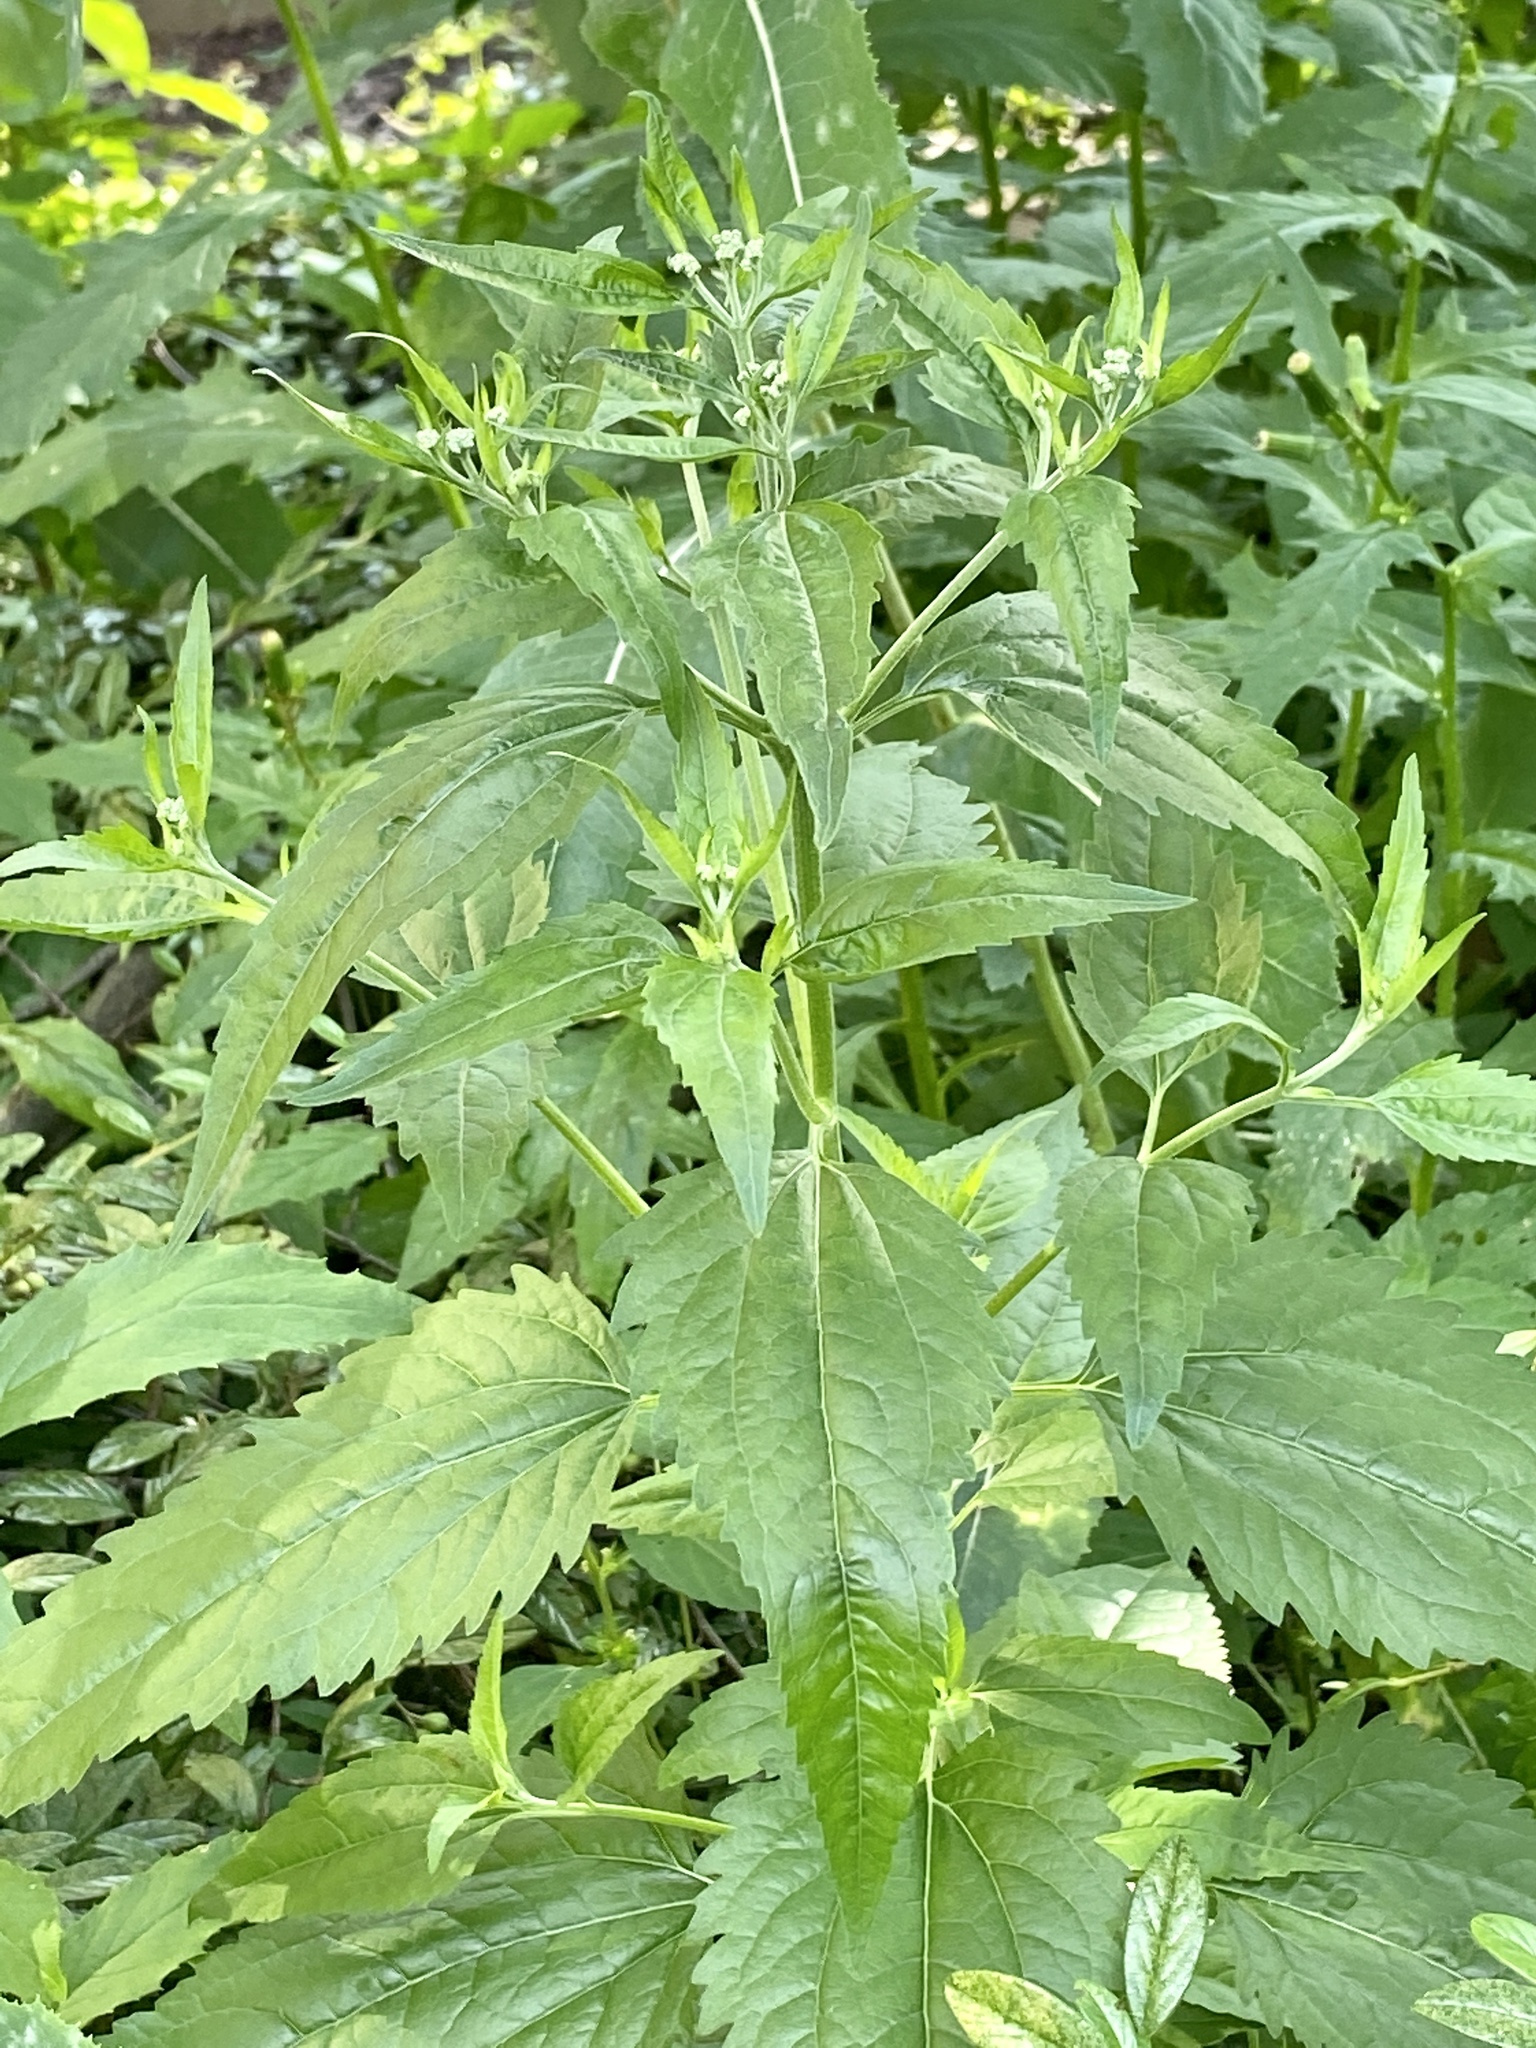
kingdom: Plantae
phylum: Tracheophyta
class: Magnoliopsida
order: Asterales
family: Asteraceae
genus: Eupatorium
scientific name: Eupatorium serotinum
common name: Late boneset
